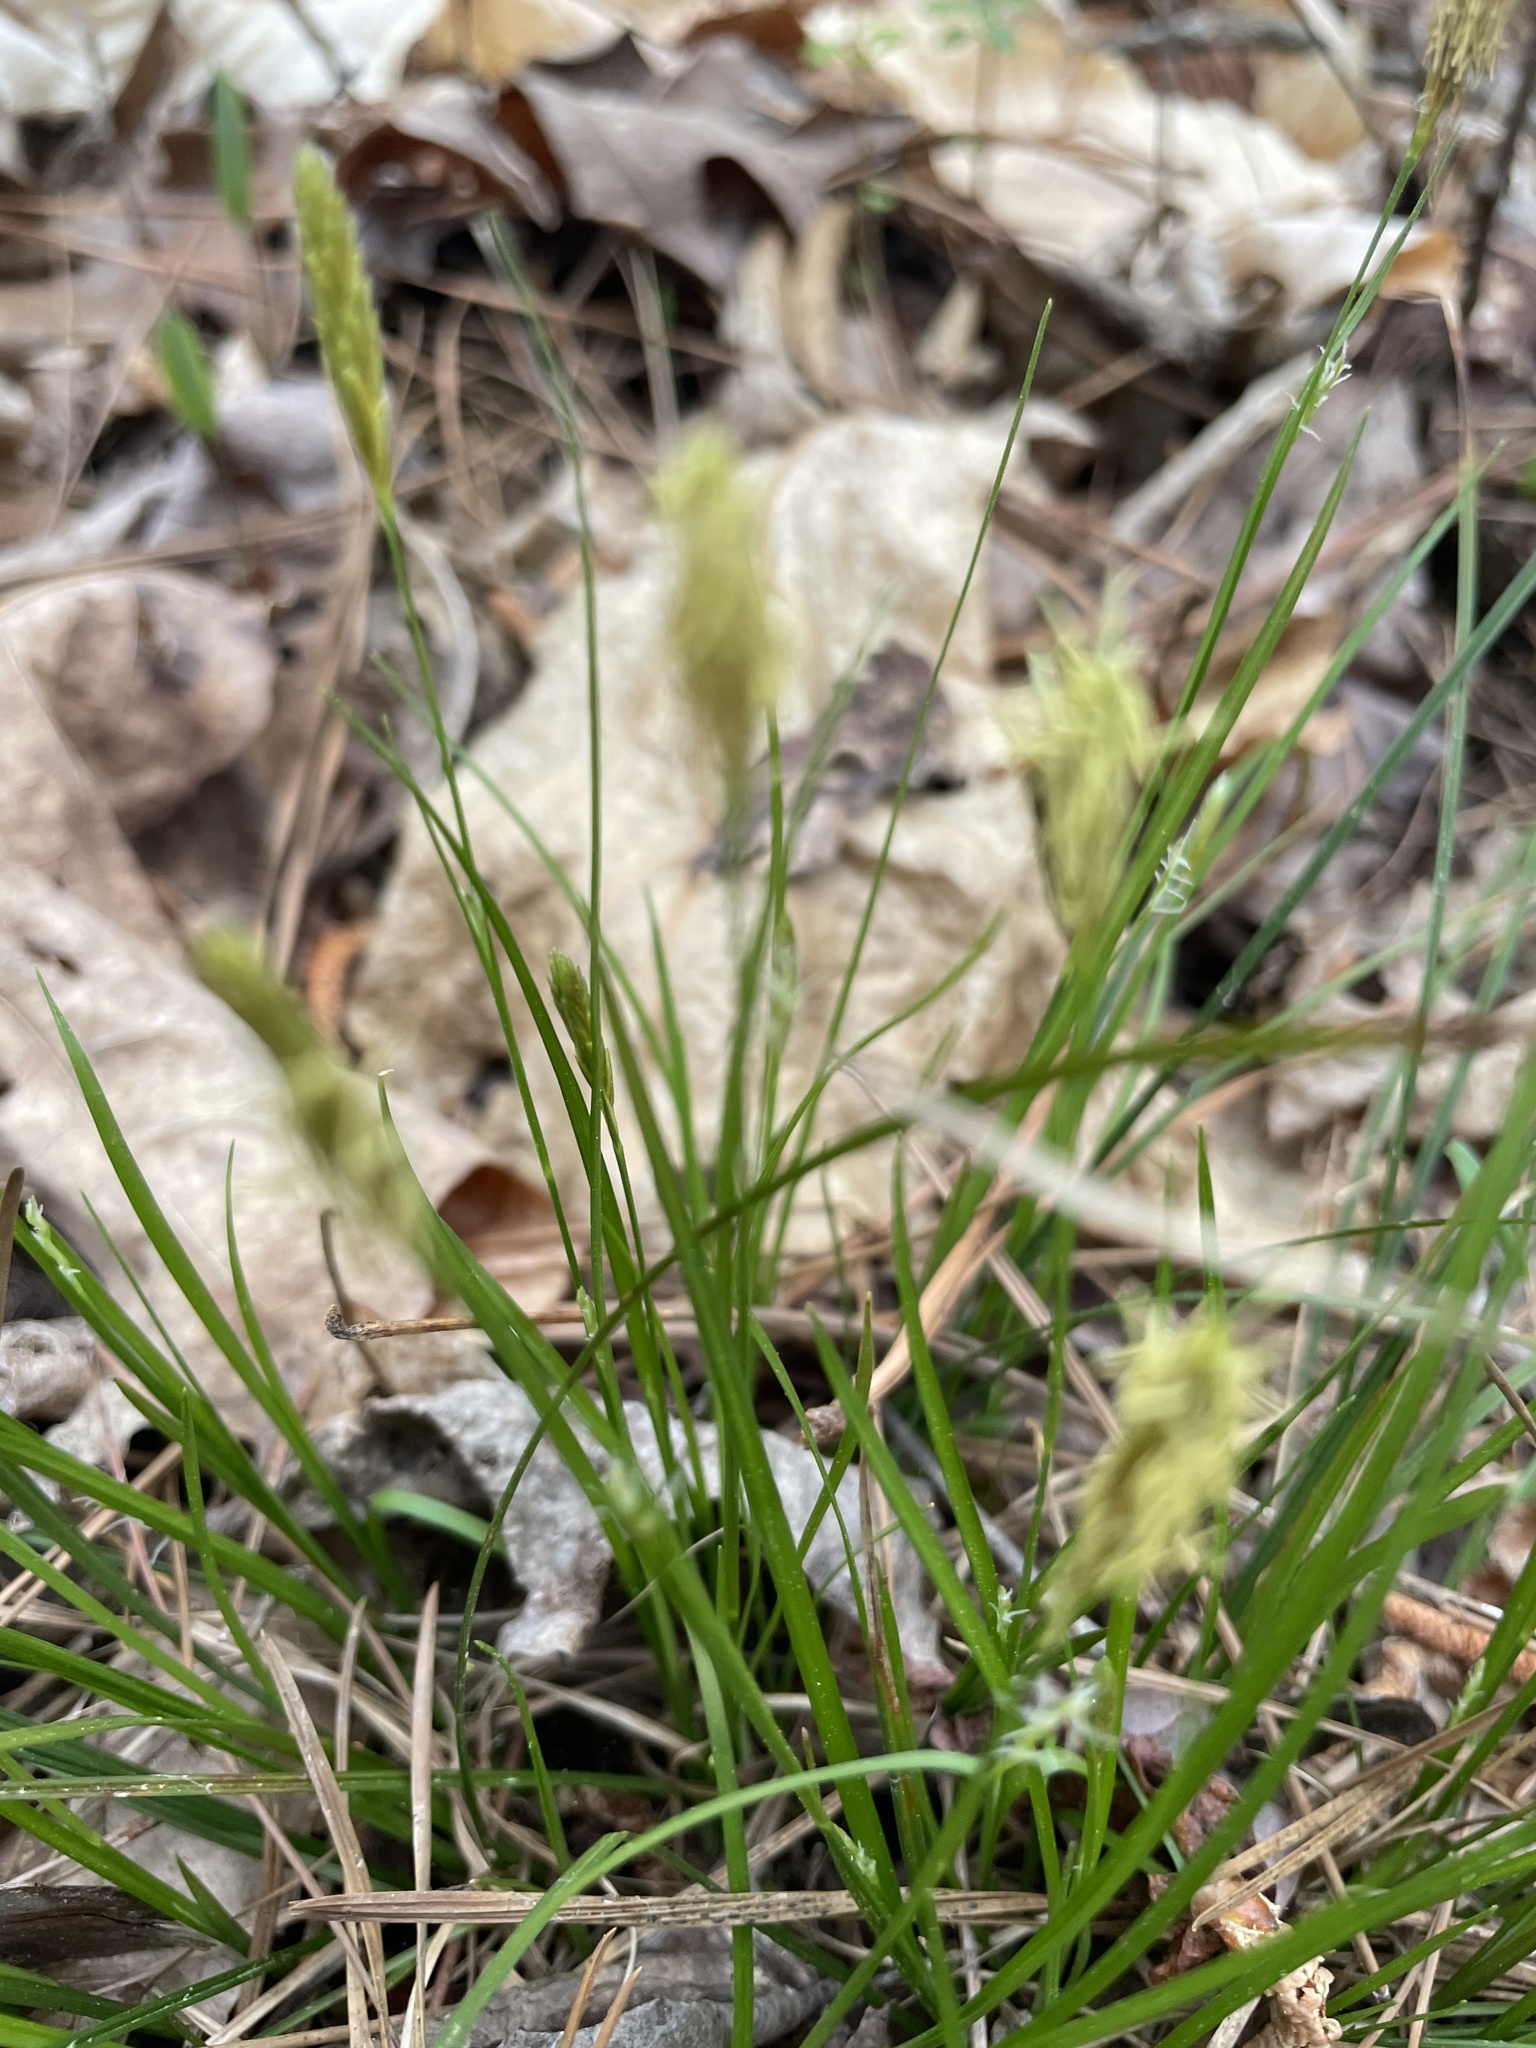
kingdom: Plantae
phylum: Tracheophyta
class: Liliopsida
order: Poales
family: Cyperaceae
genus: Carex
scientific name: Carex pensylvanica
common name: Common oak sedge
